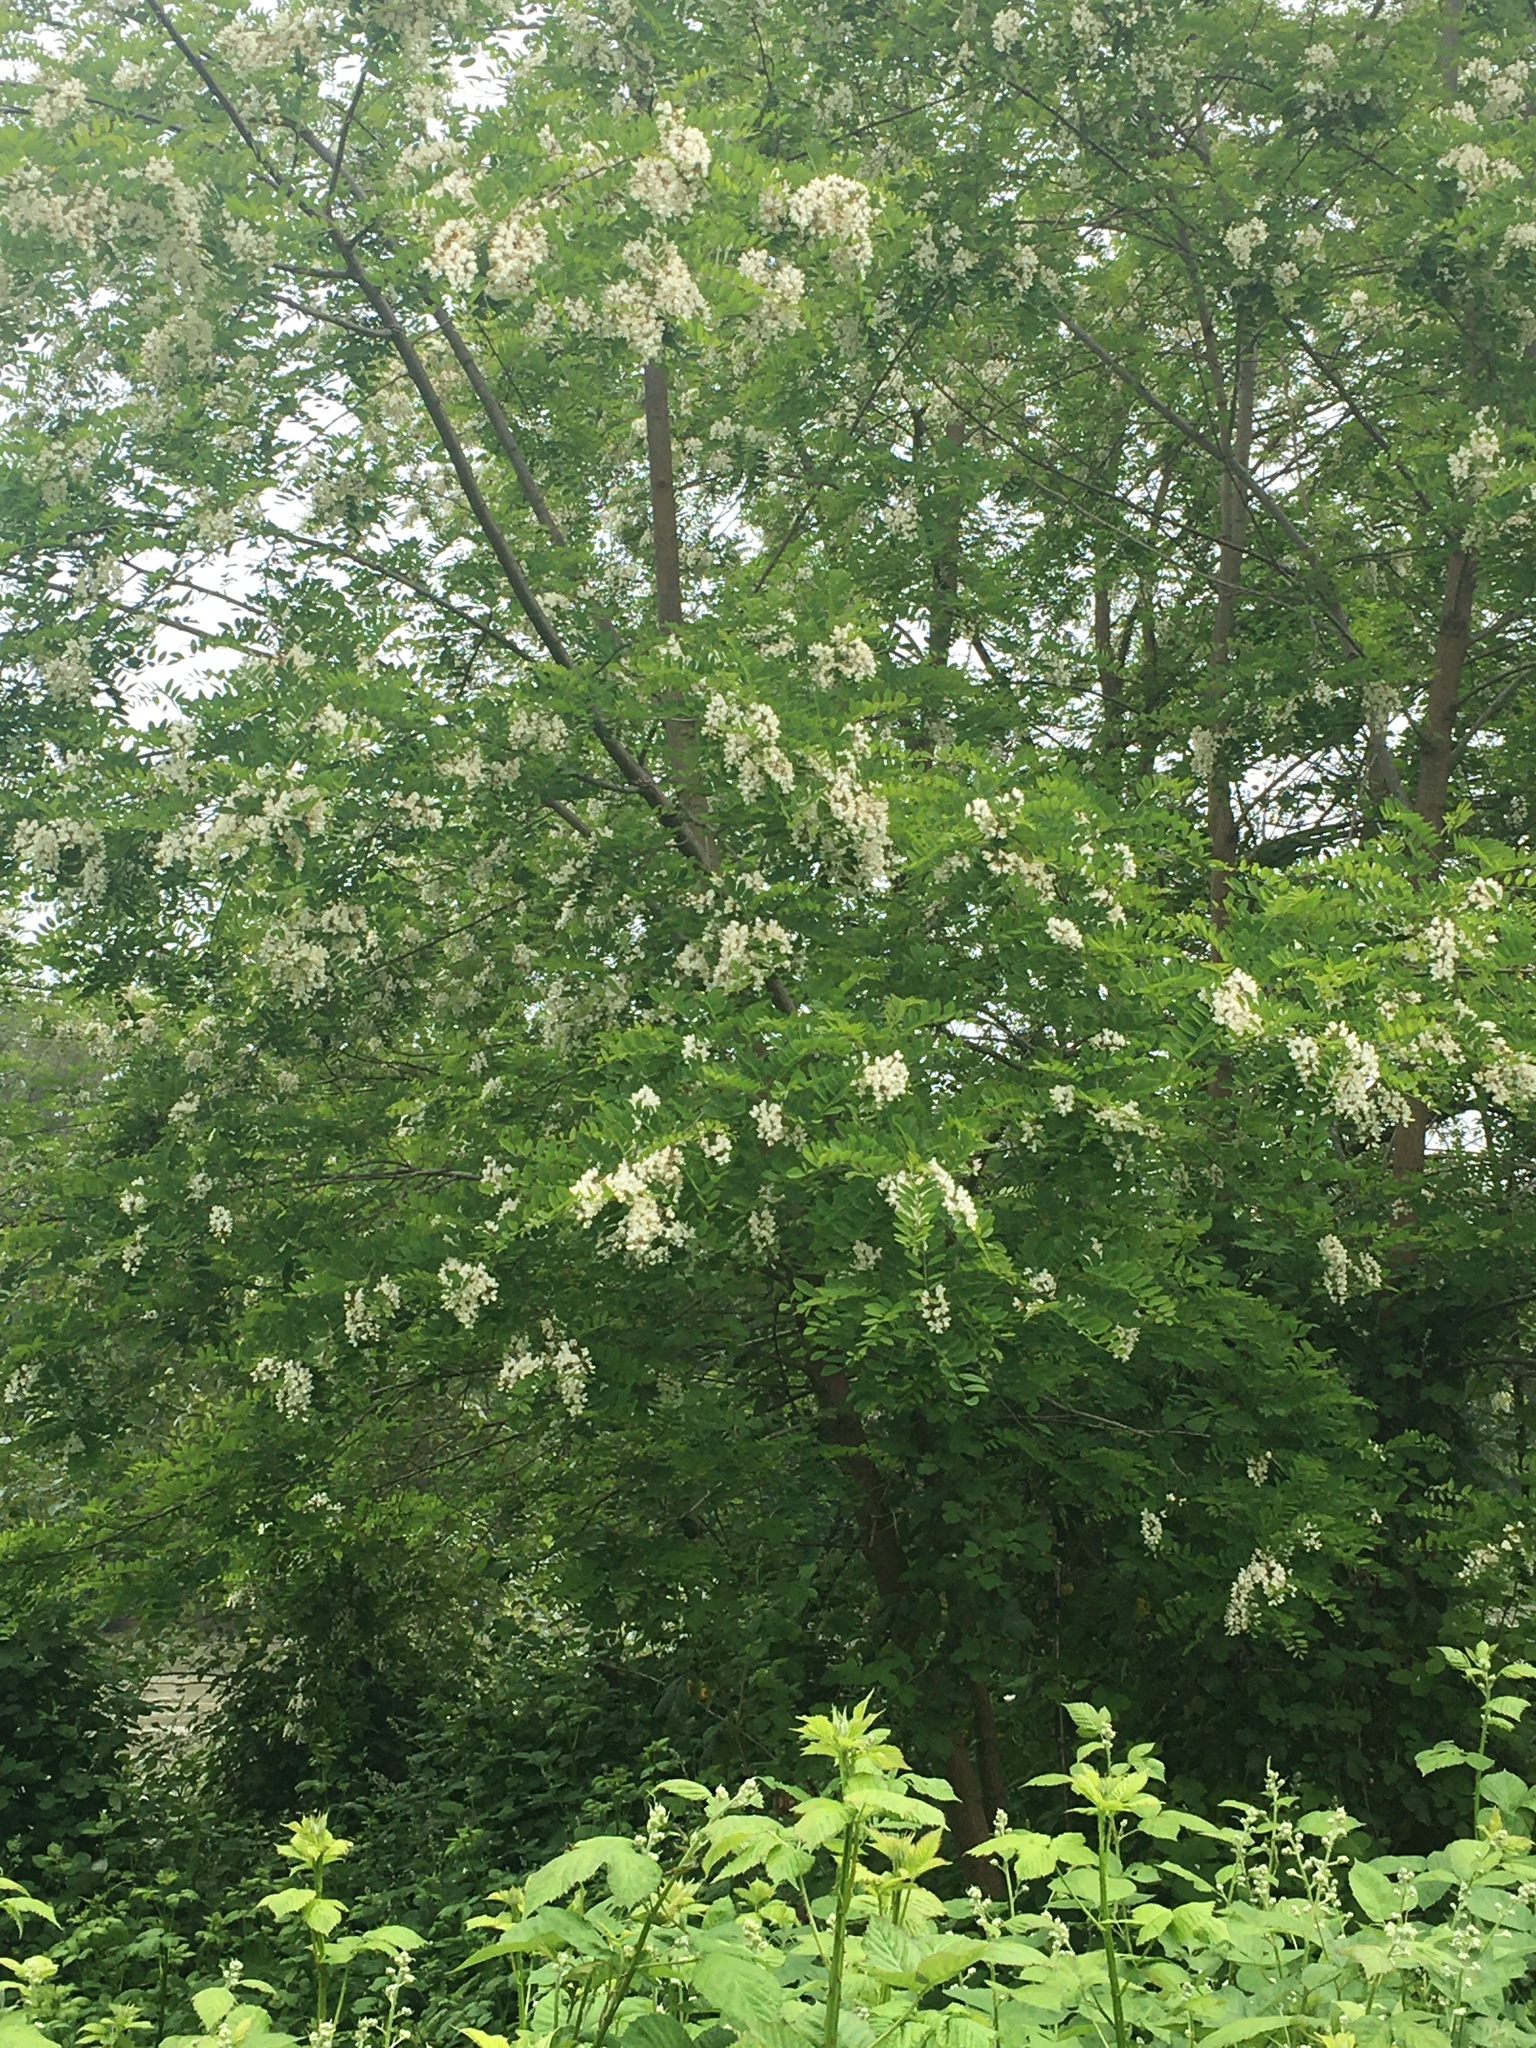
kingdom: Plantae
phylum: Tracheophyta
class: Magnoliopsida
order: Fabales
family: Fabaceae
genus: Robinia
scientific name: Robinia pseudoacacia
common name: Black locust
